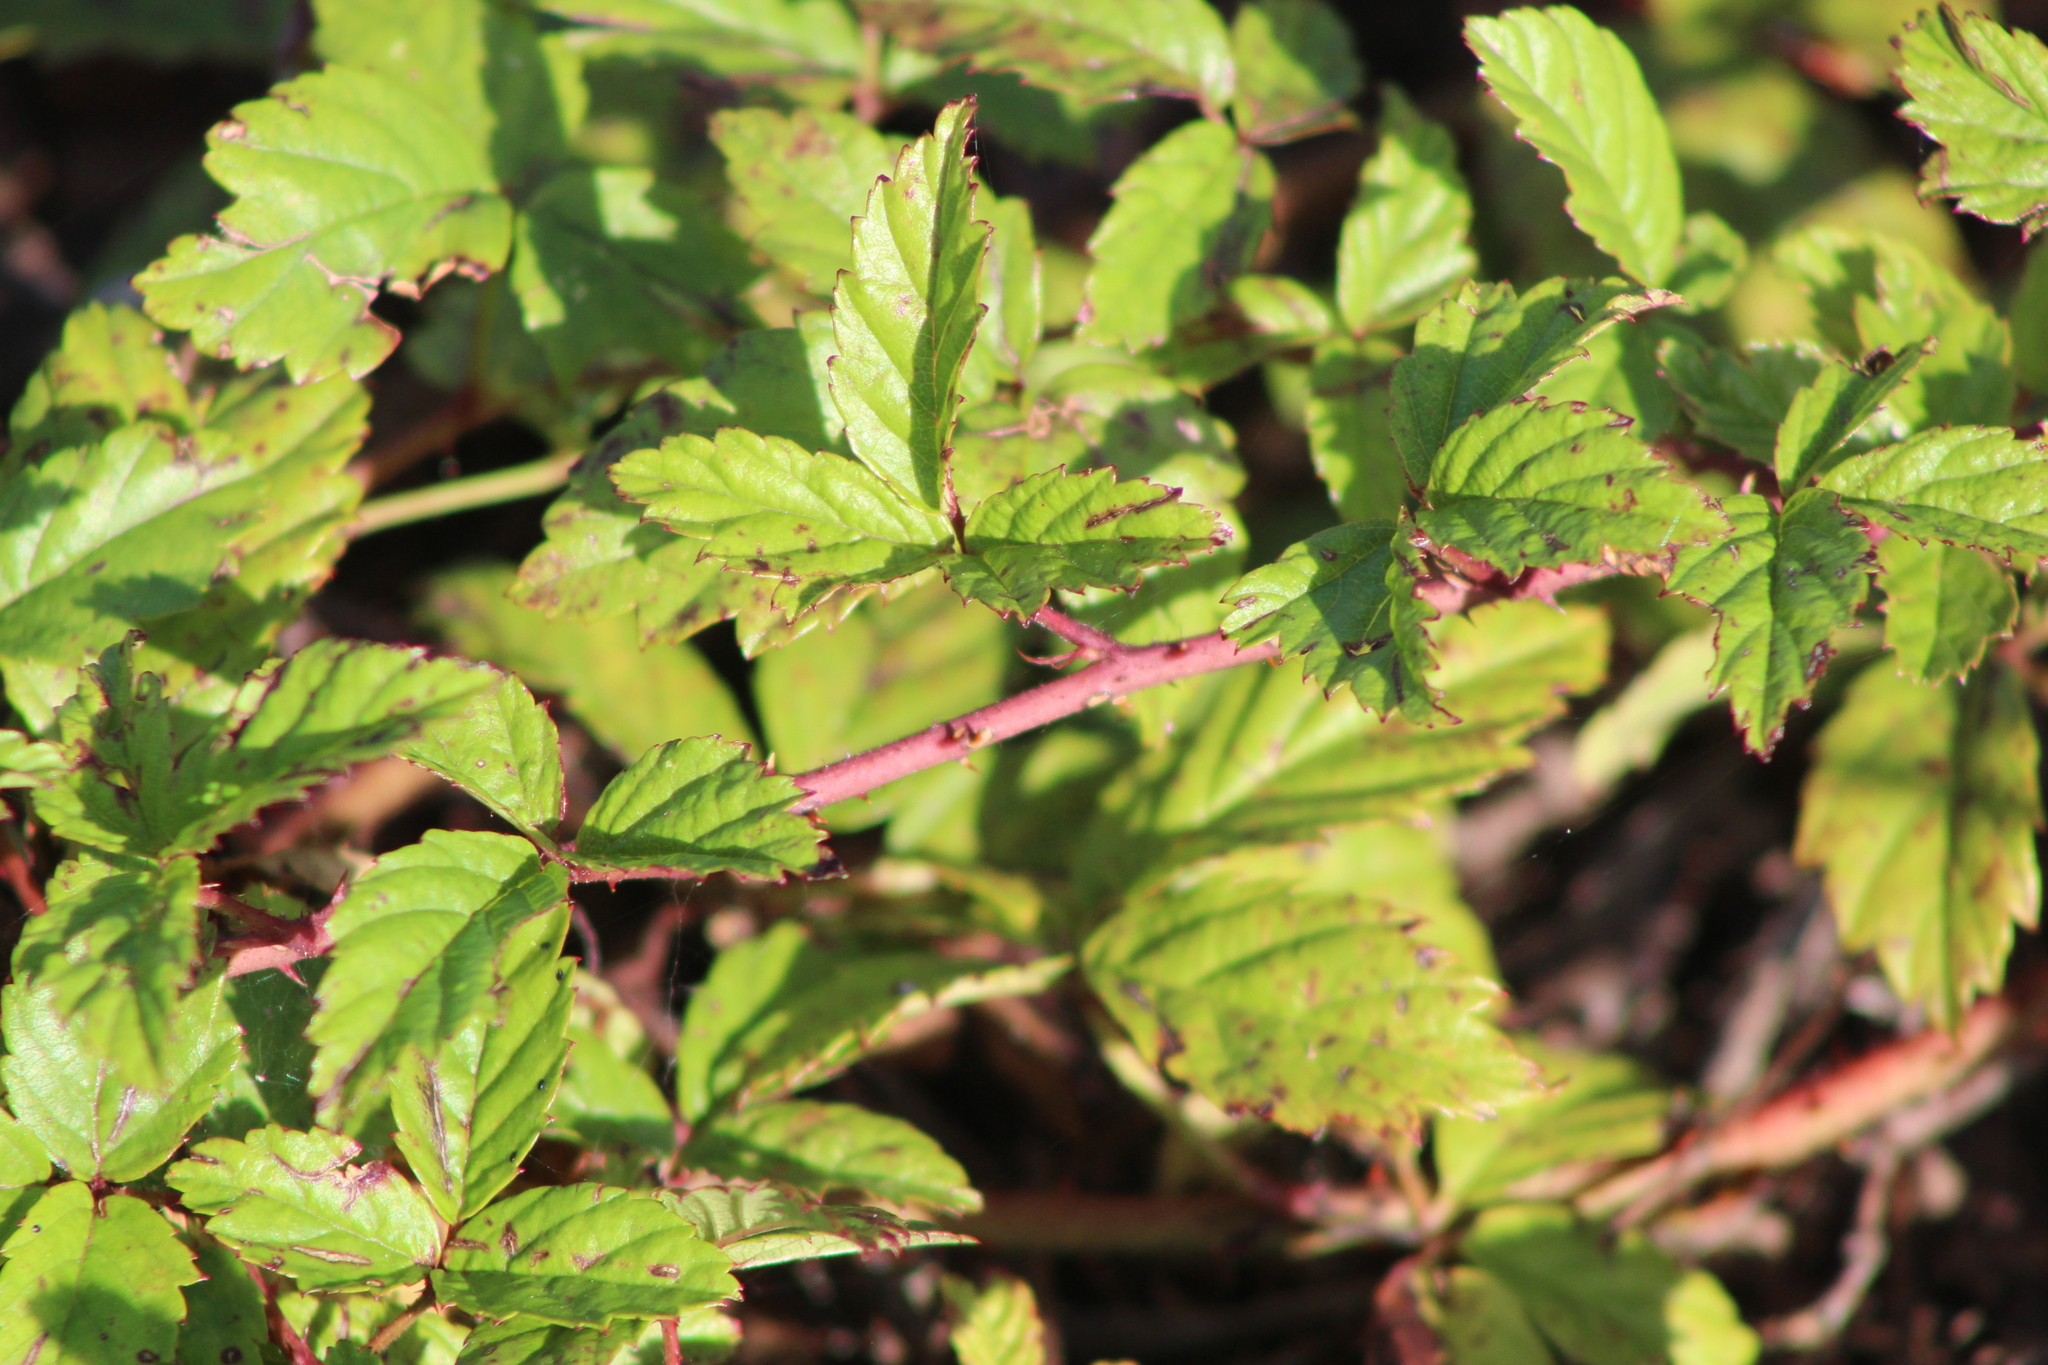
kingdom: Plantae
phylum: Tracheophyta
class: Magnoliopsida
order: Rosales
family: Rosaceae
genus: Rubus
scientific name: Rubus trivialis
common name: Southern dewberry
